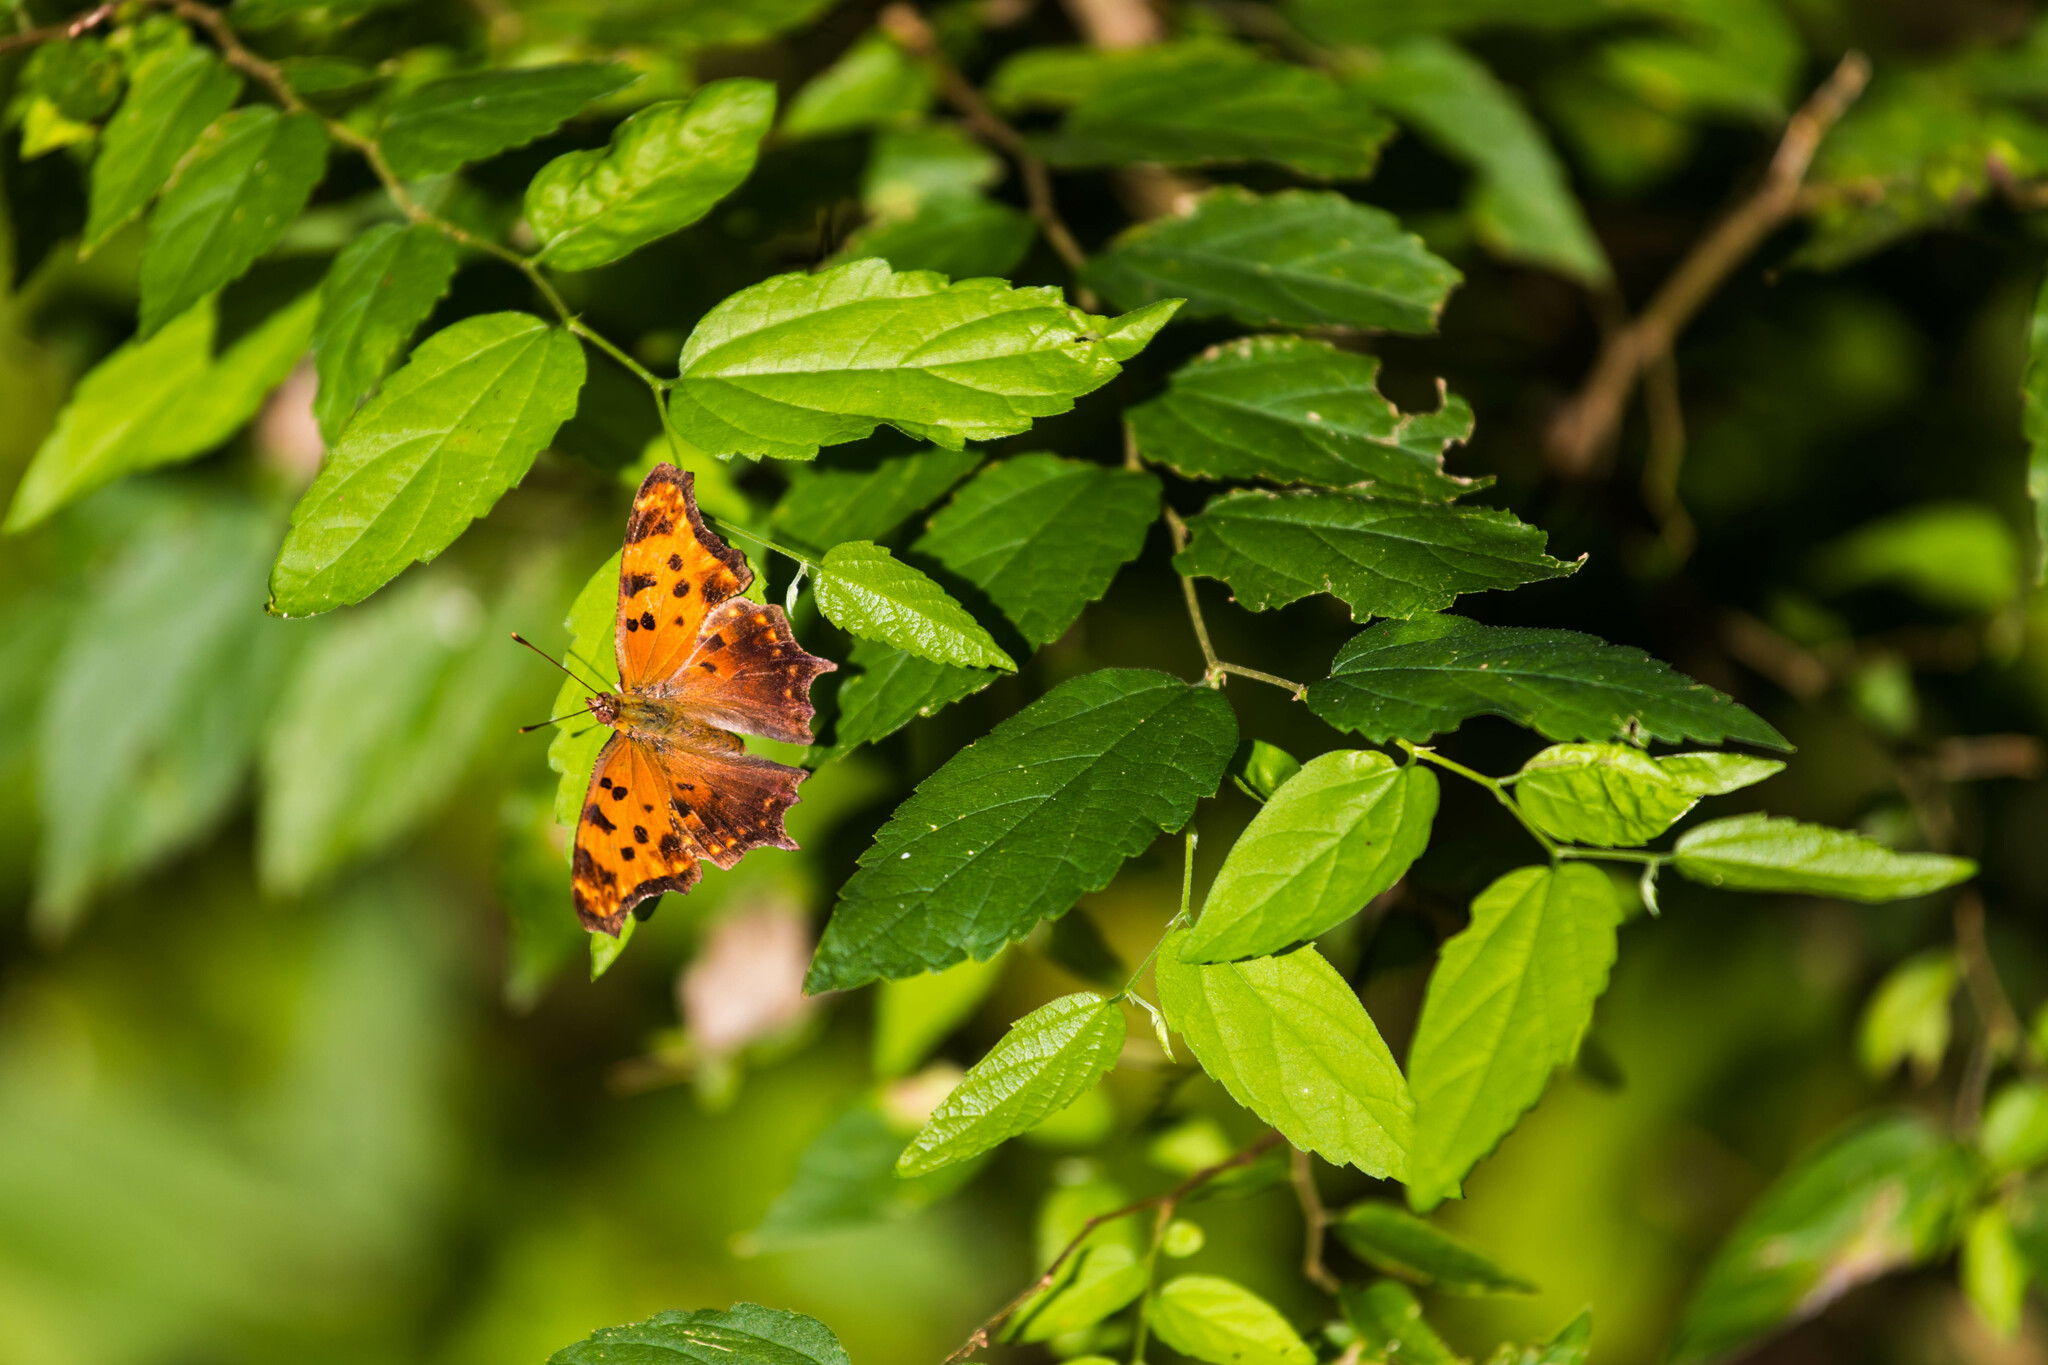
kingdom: Animalia
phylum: Arthropoda
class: Insecta
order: Lepidoptera
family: Nymphalidae
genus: Polygonia
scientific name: Polygonia comma
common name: Eastern comma
